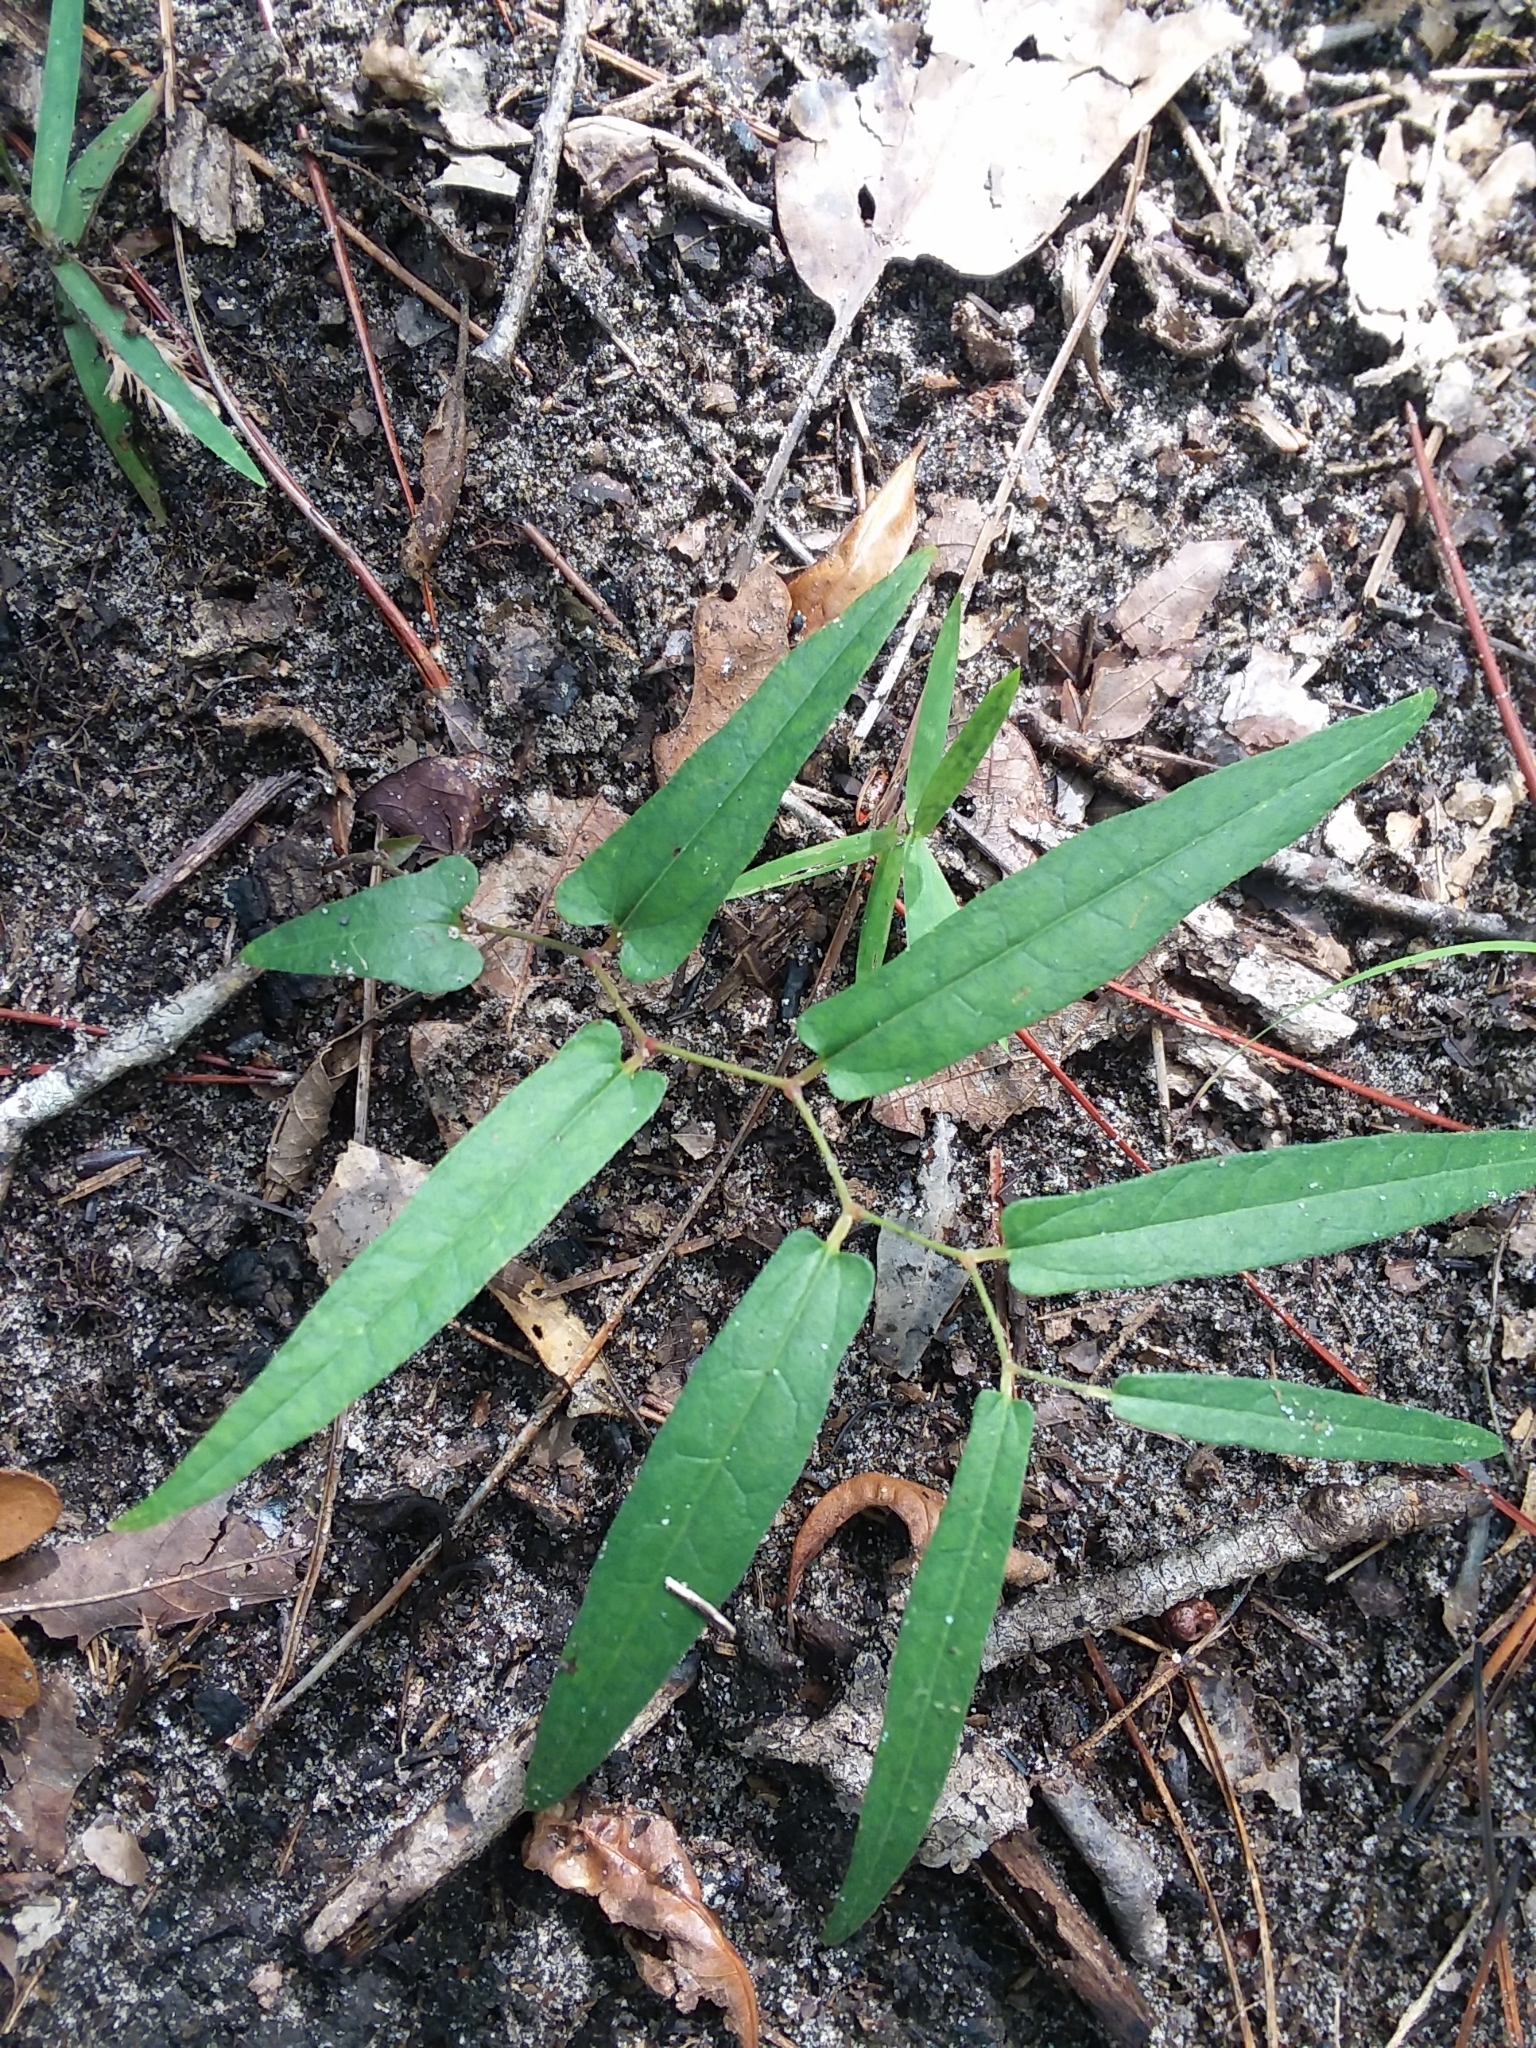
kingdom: Plantae
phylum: Tracheophyta
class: Magnoliopsida
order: Piperales
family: Aristolochiaceae
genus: Endodeca
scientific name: Endodeca serpentaria
